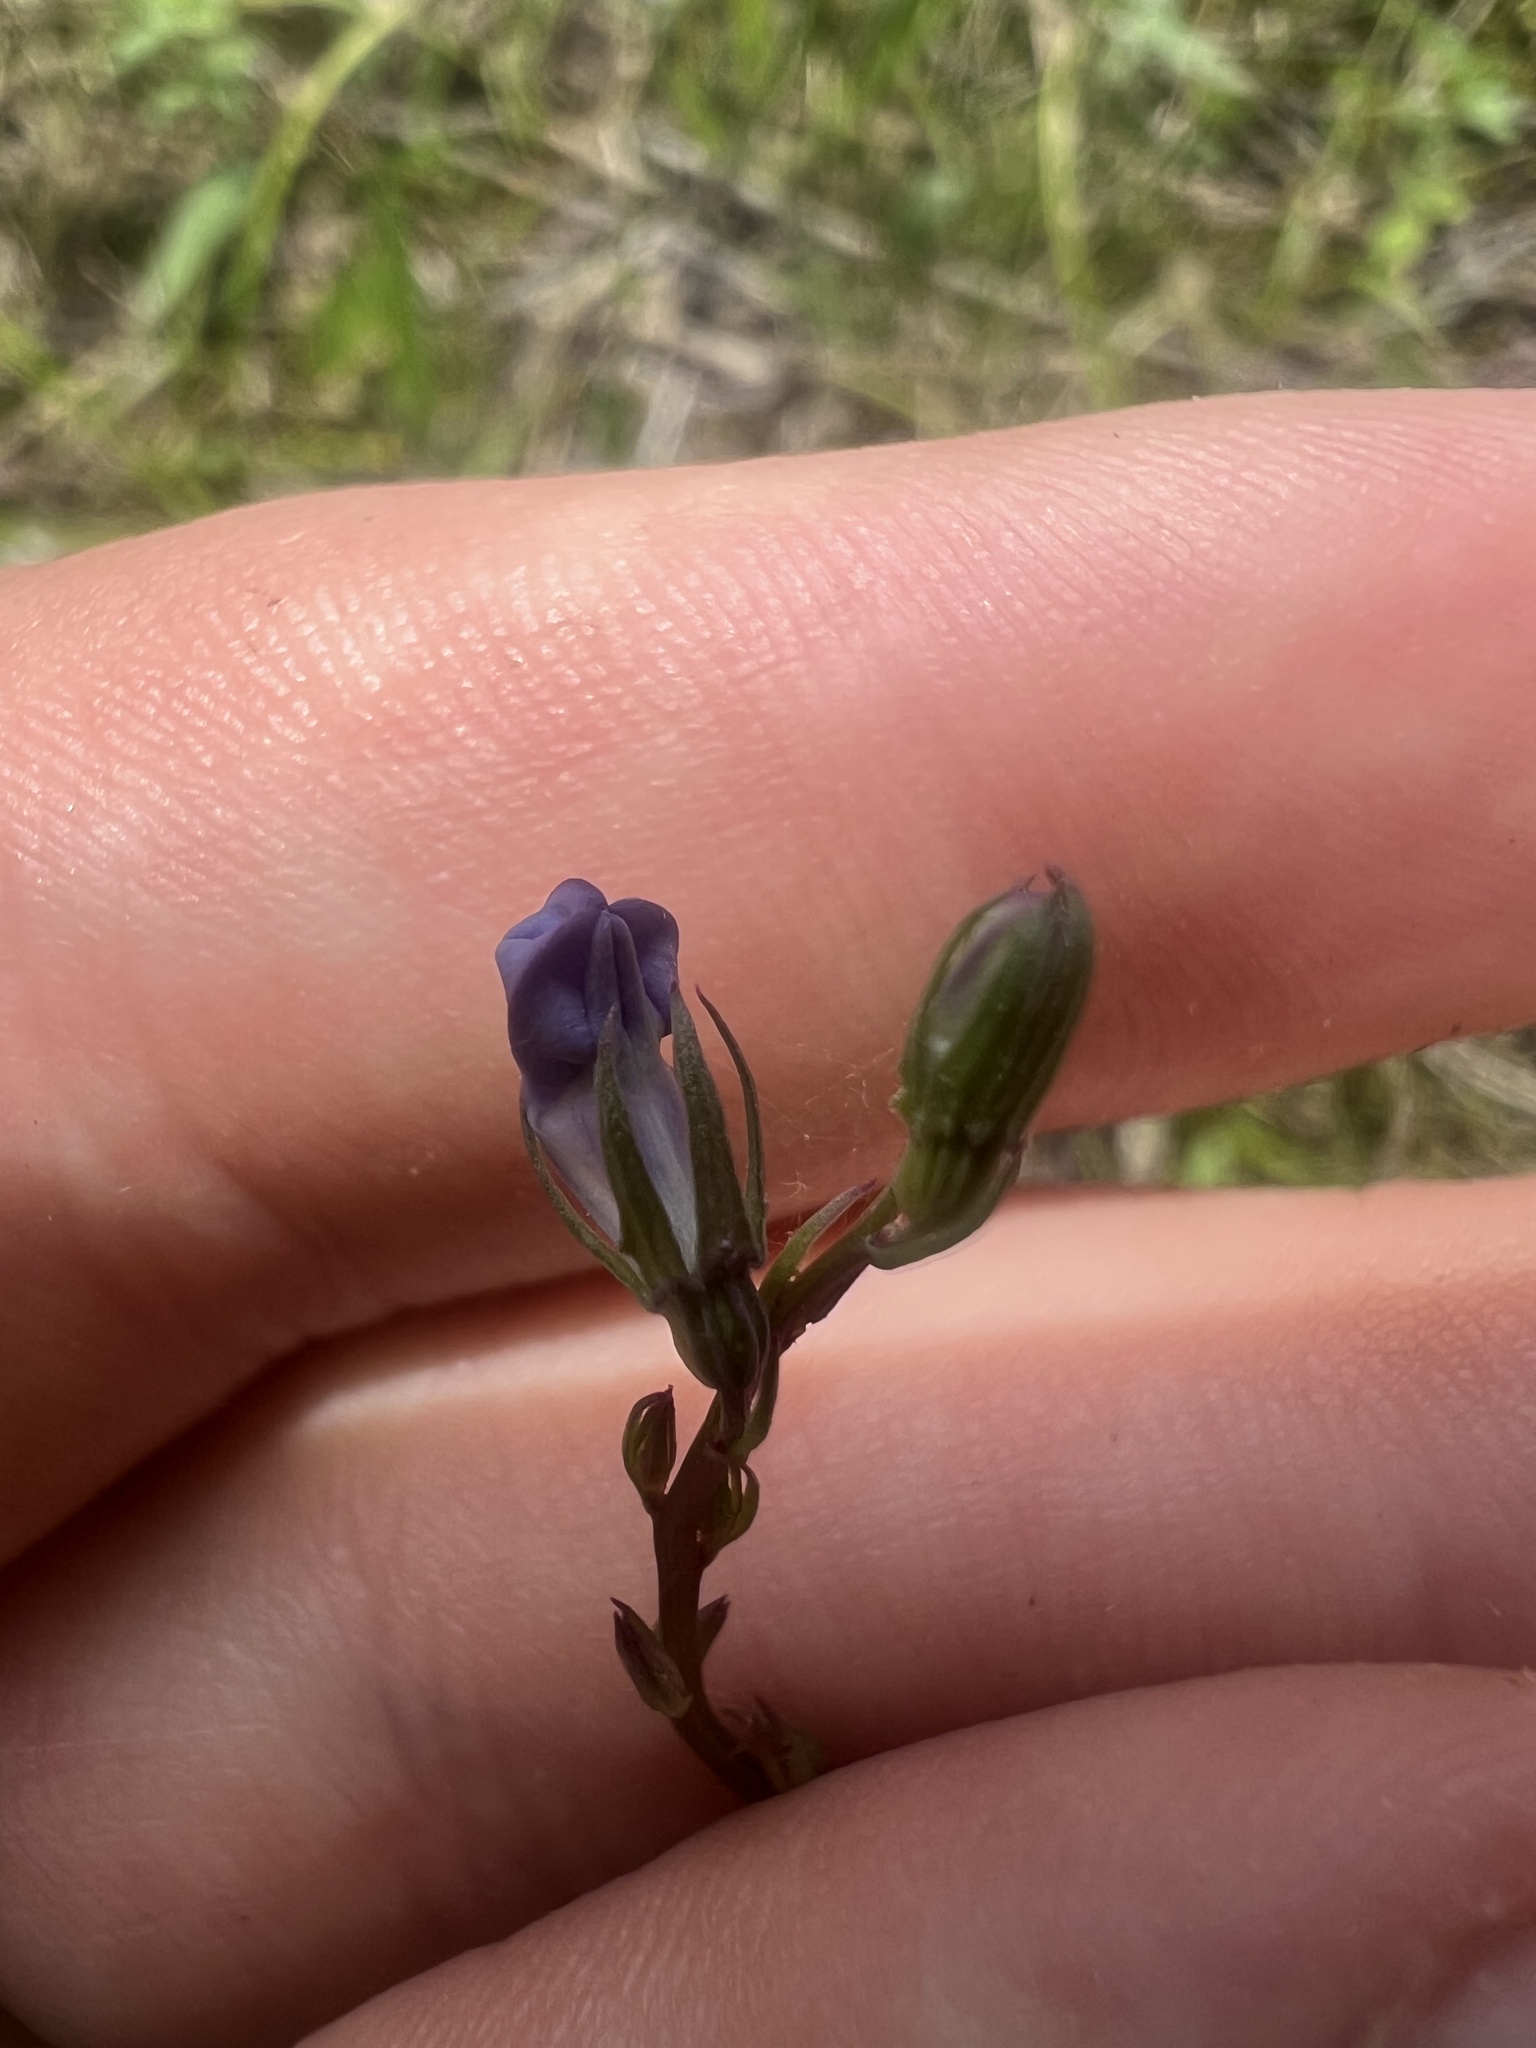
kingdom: Plantae
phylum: Tracheophyta
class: Magnoliopsida
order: Asterales
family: Campanulaceae
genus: Lobelia
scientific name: Lobelia gattingeri
